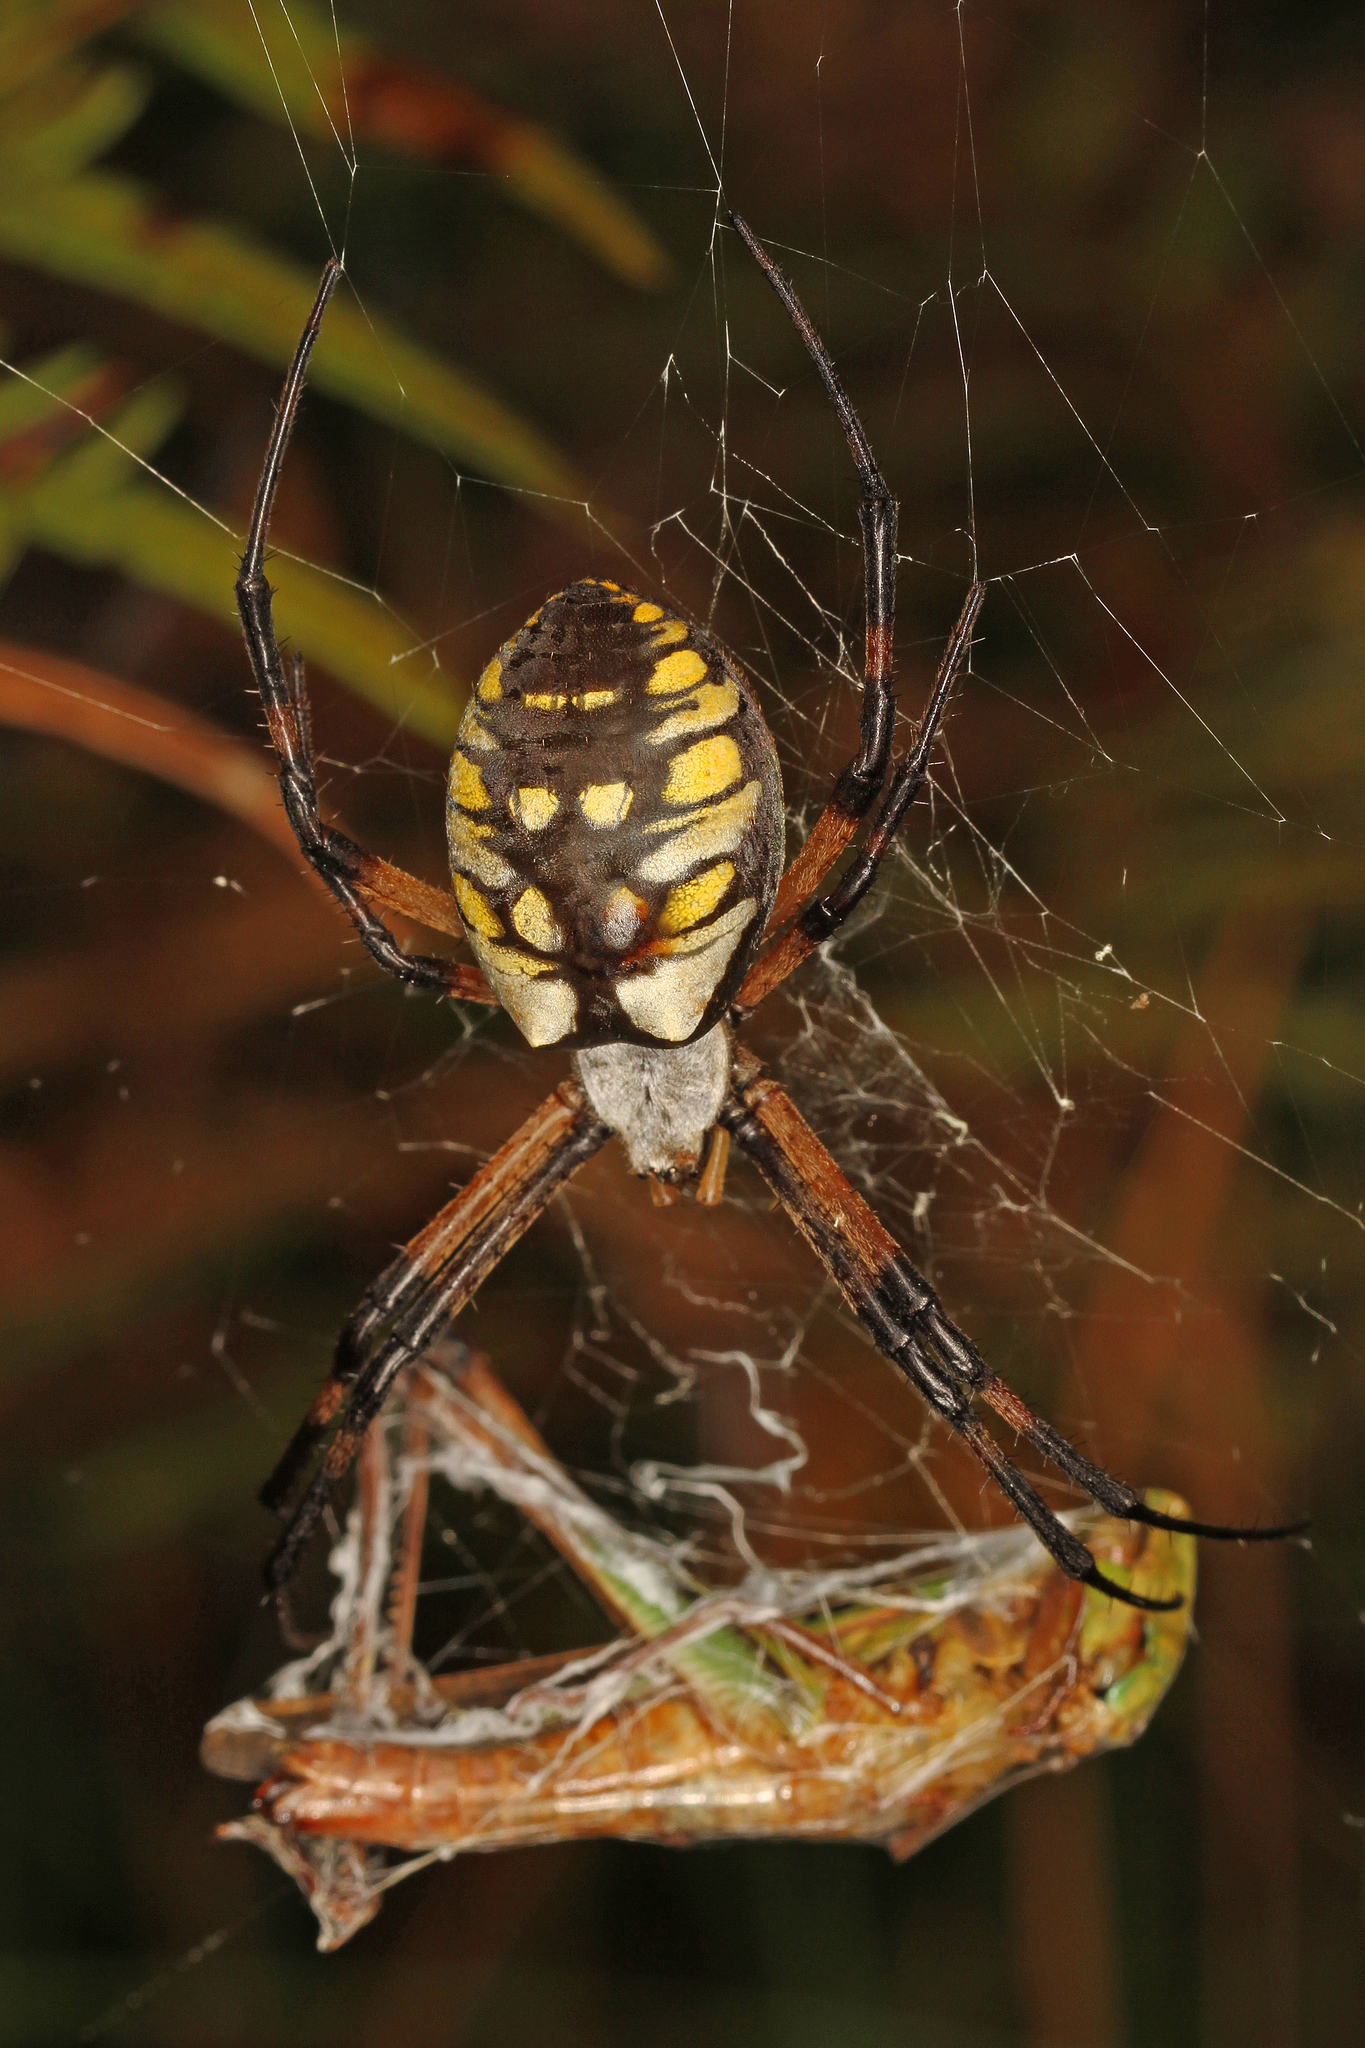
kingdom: Animalia
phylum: Arthropoda
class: Arachnida
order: Araneae
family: Araneidae
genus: Argiope
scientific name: Argiope aurantia
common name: Orb weavers
